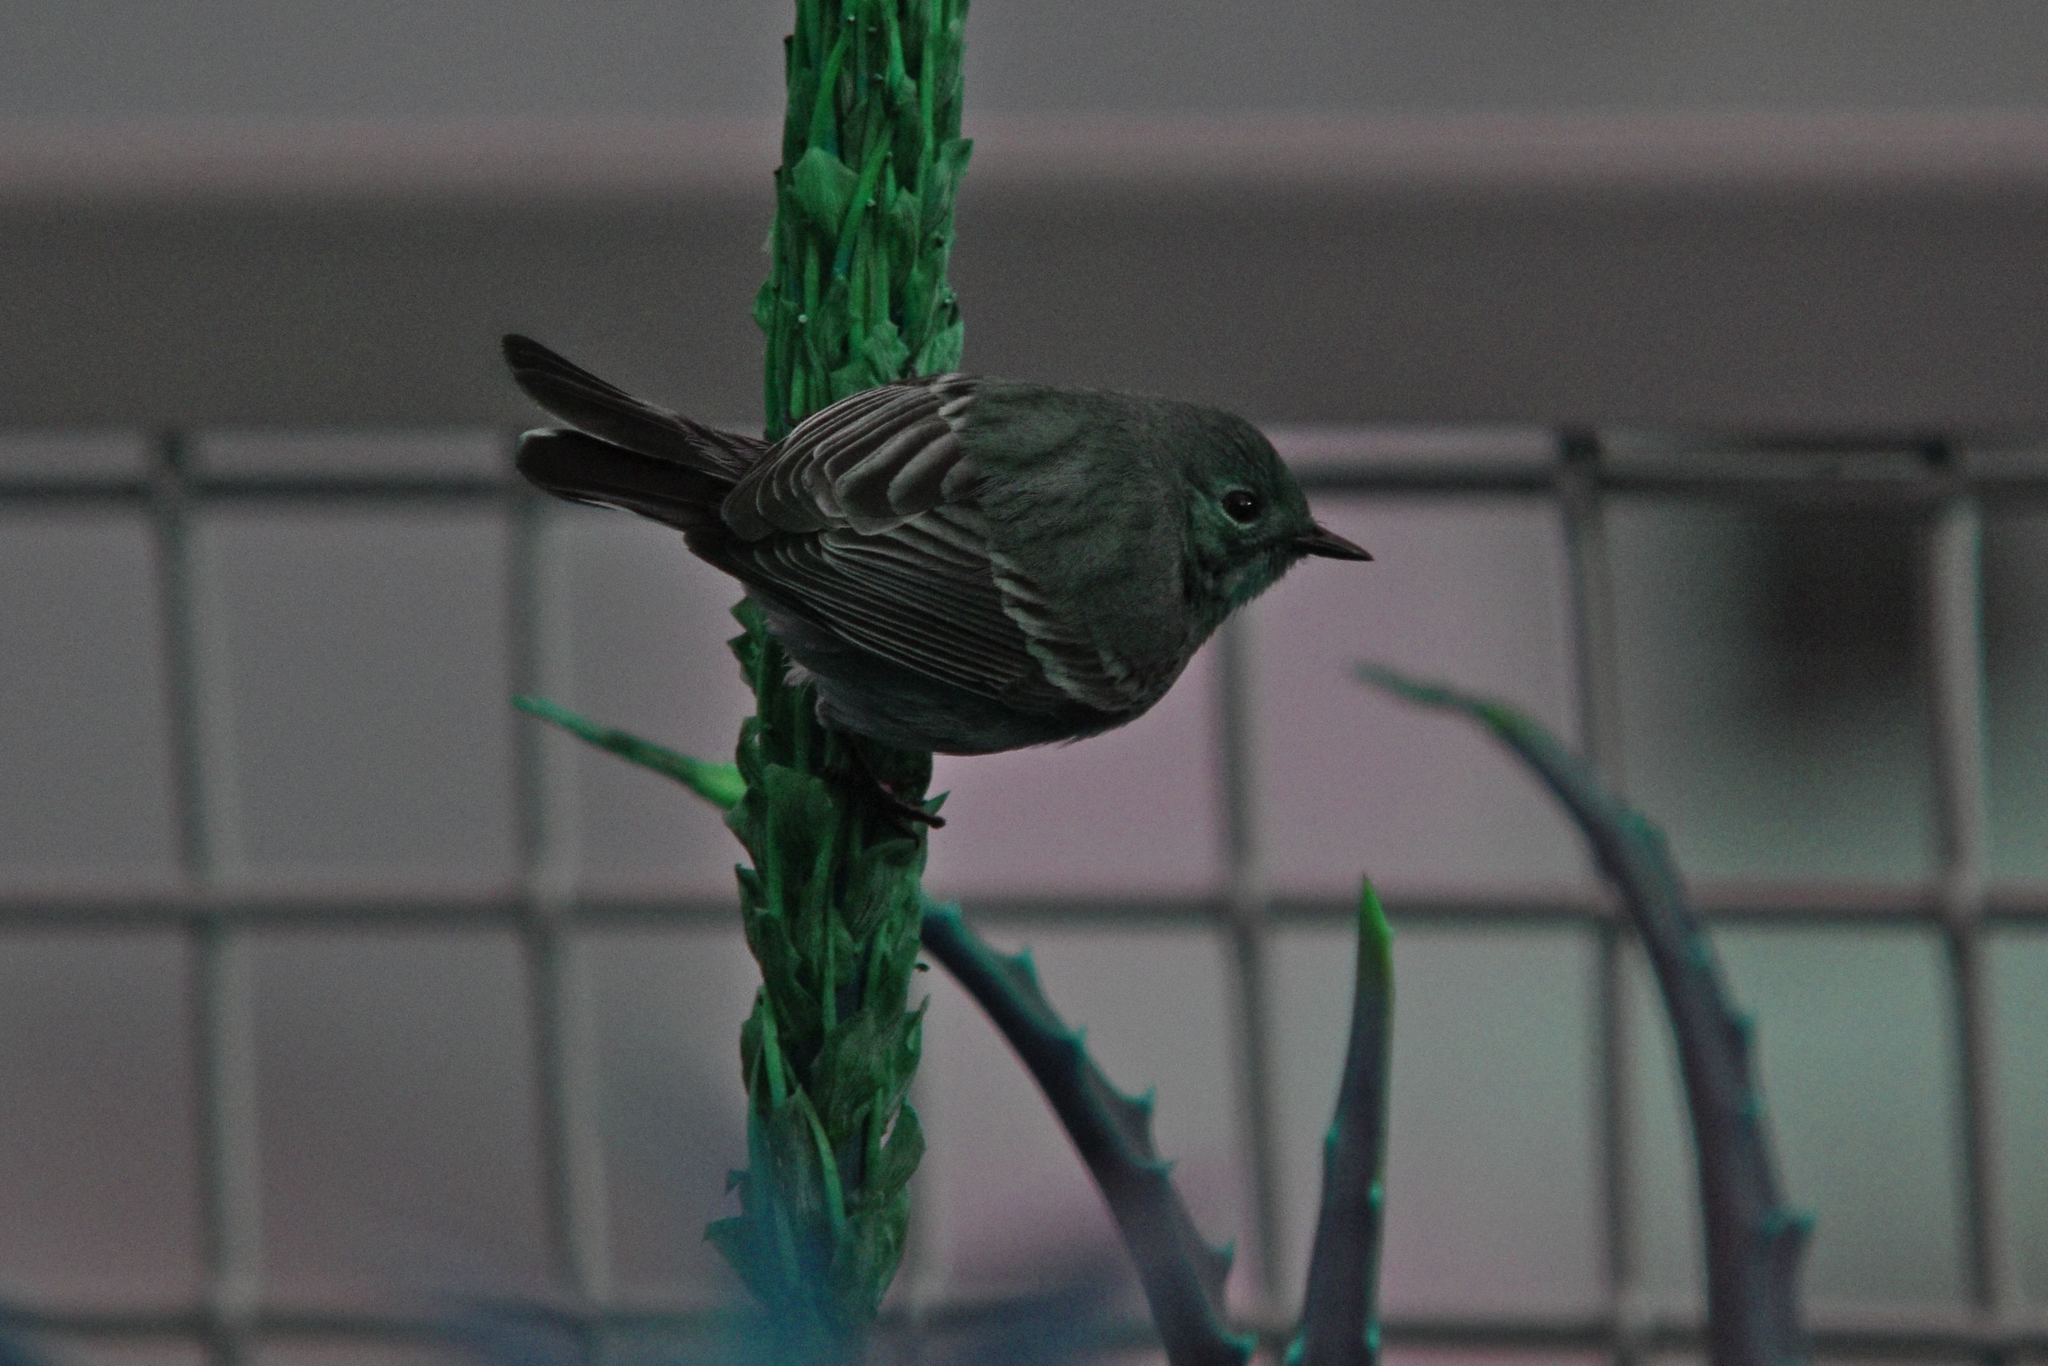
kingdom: Animalia
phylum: Chordata
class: Aves
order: Passeriformes
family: Parulidae
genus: Setophaga
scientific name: Setophaga coronata
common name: Myrtle warbler
